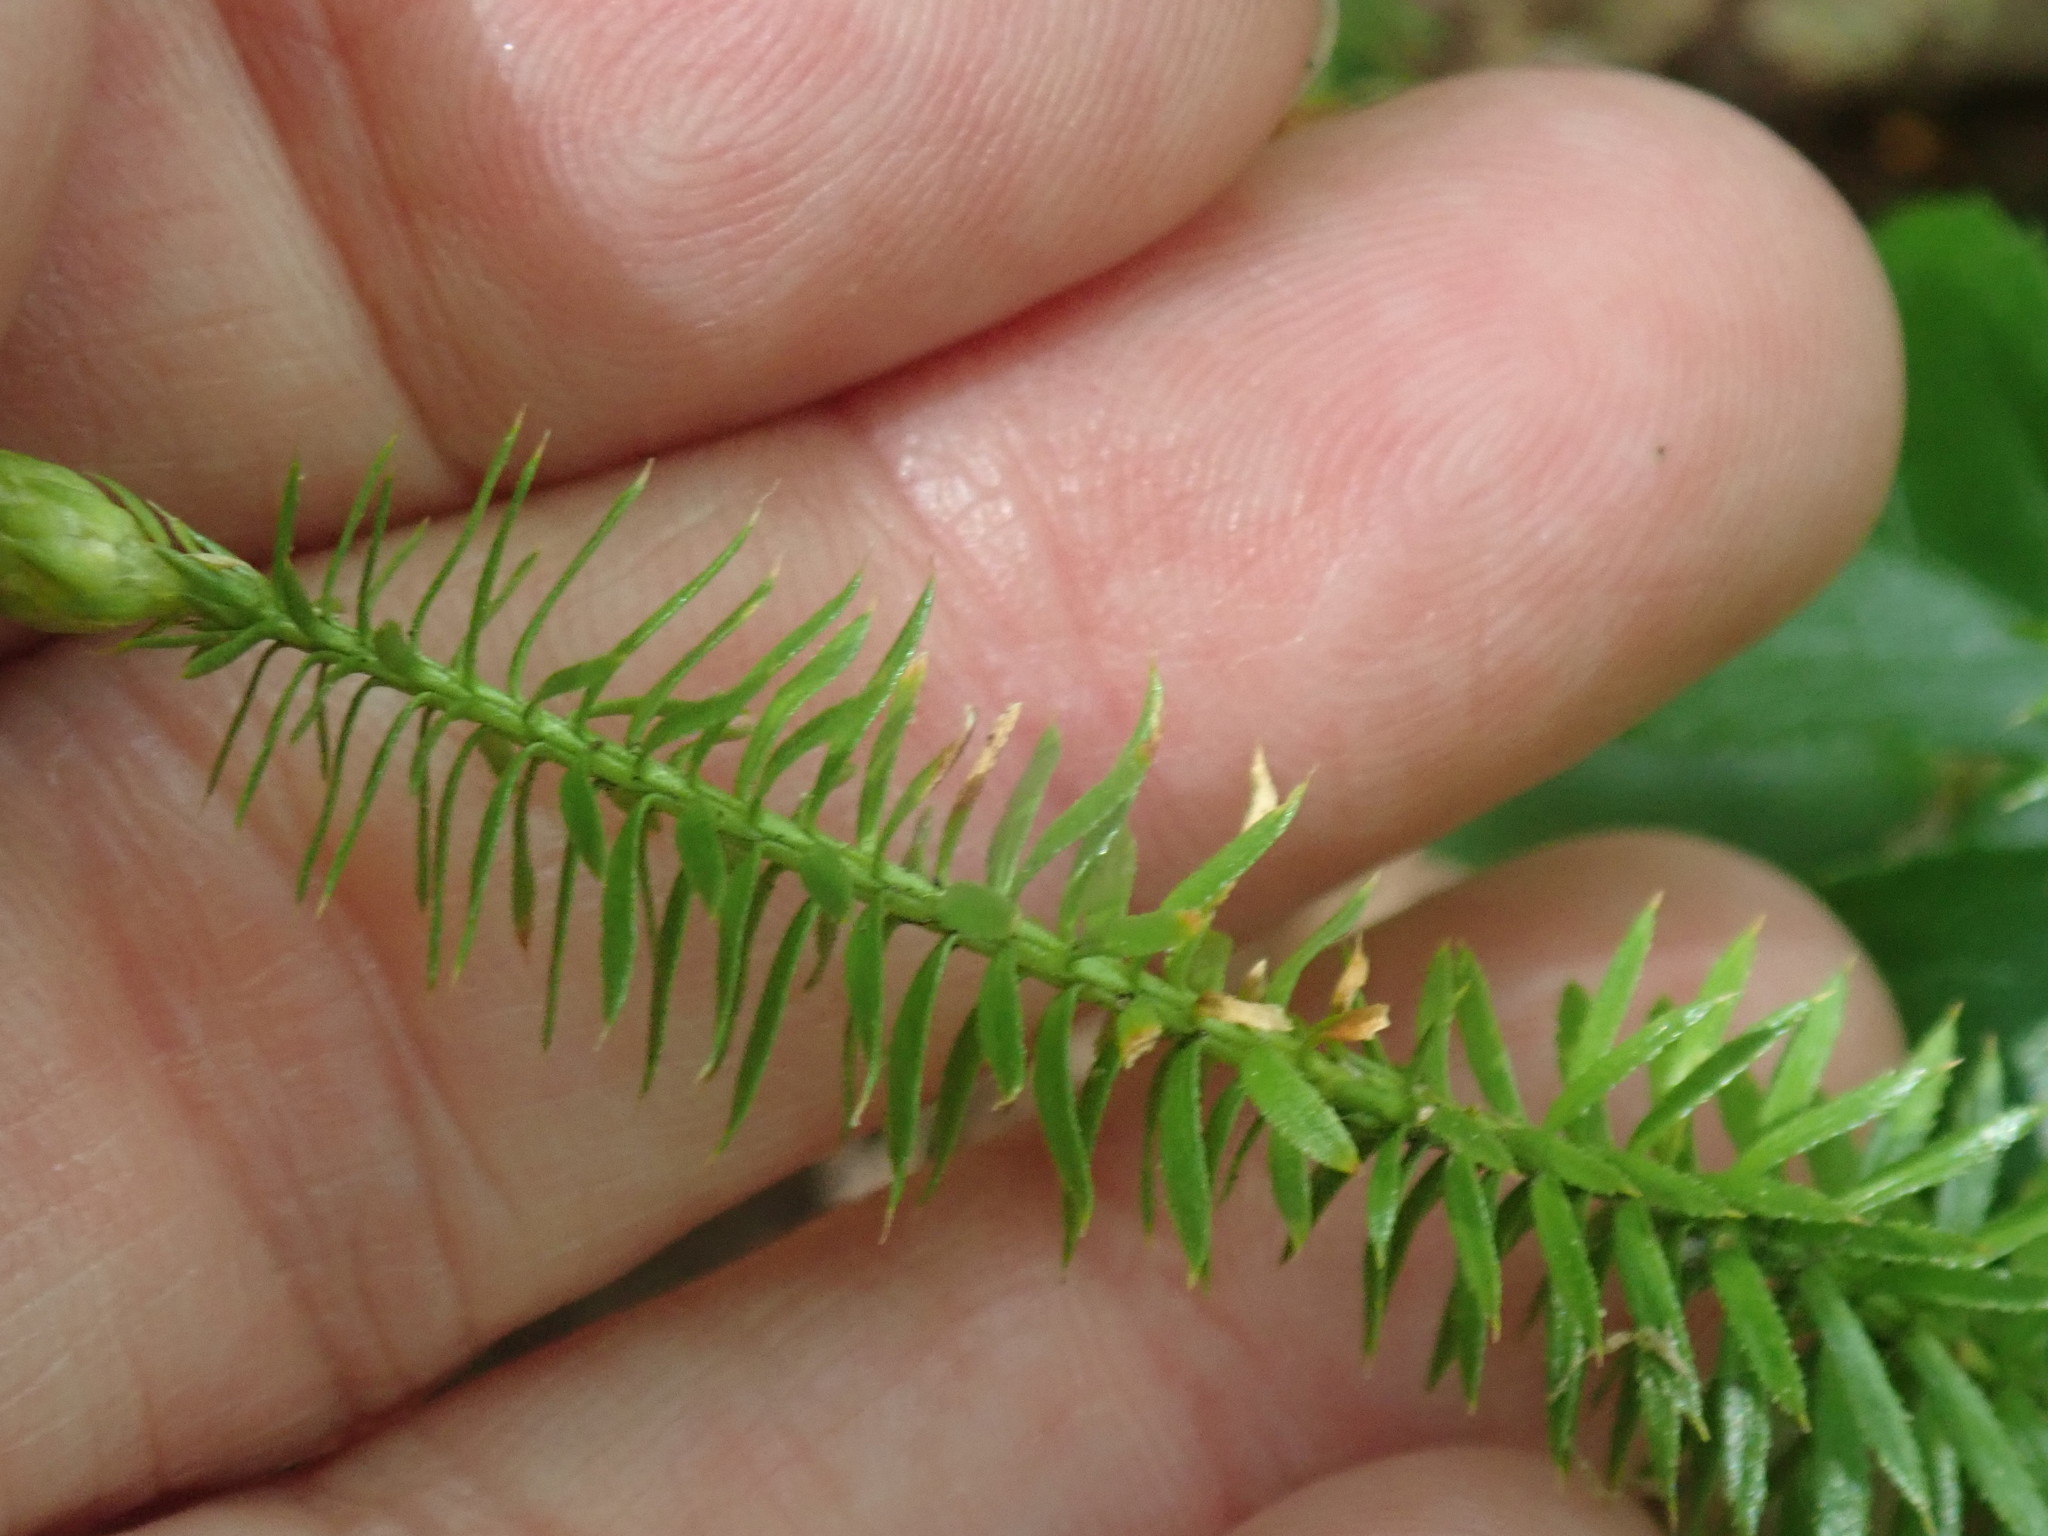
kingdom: Plantae
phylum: Tracheophyta
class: Lycopodiopsida
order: Lycopodiales
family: Lycopodiaceae
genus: Spinulum
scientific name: Spinulum annotinum
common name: Interrupted club-moss
